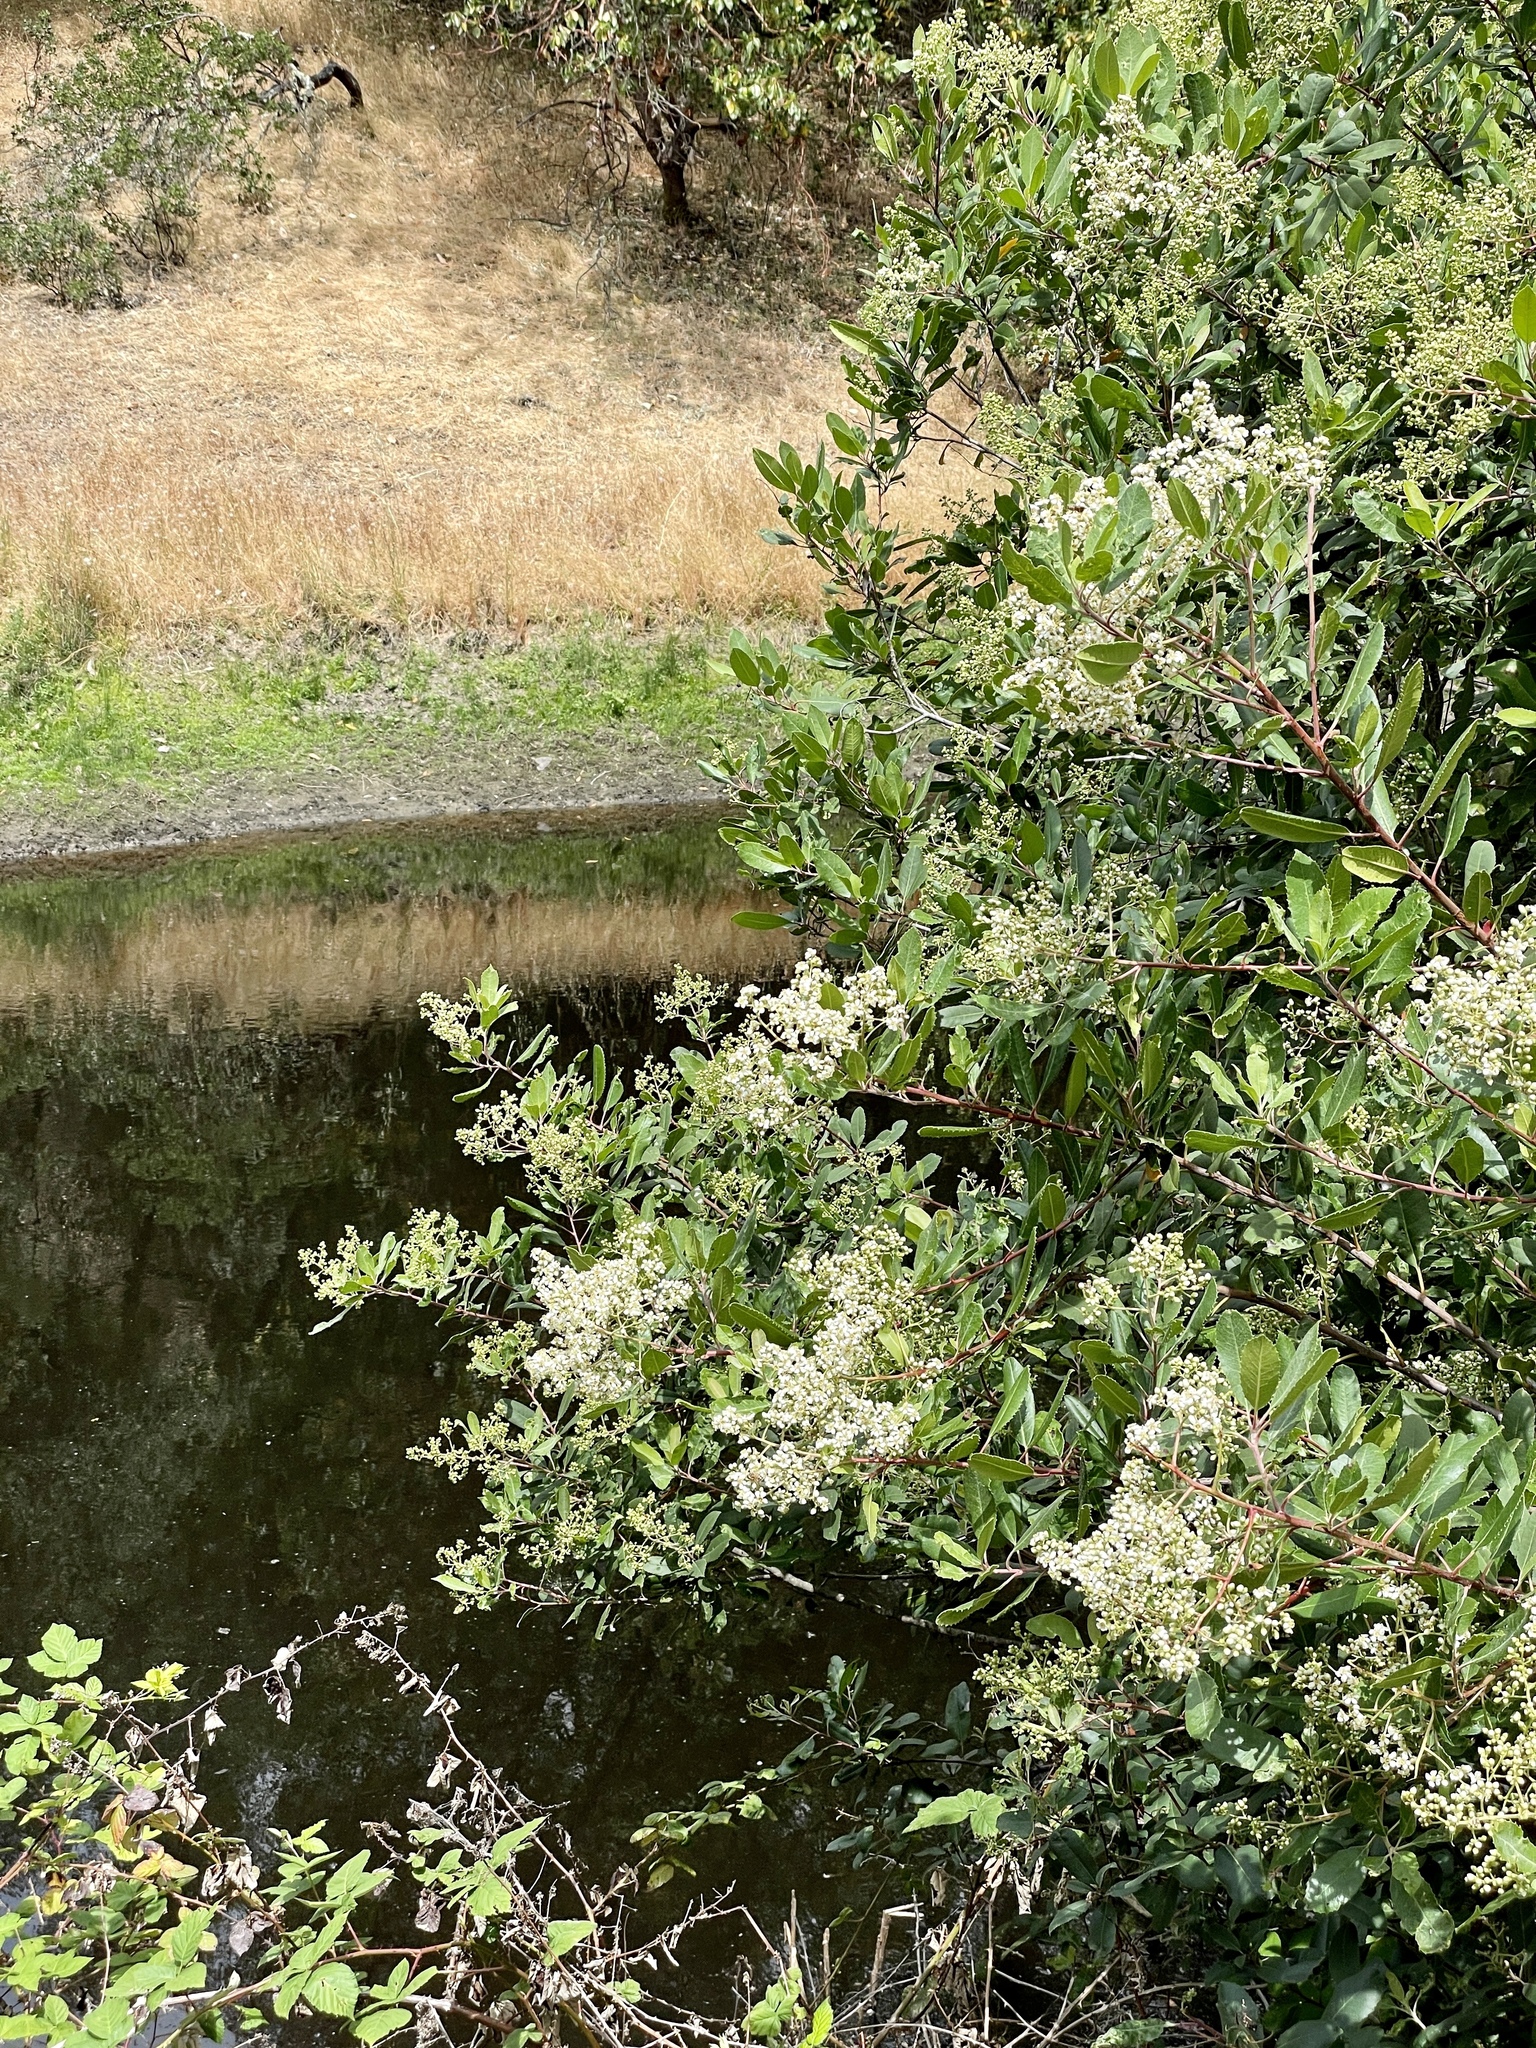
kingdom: Plantae
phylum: Tracheophyta
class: Magnoliopsida
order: Rosales
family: Rosaceae
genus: Heteromeles
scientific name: Heteromeles arbutifolia
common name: California-holly
